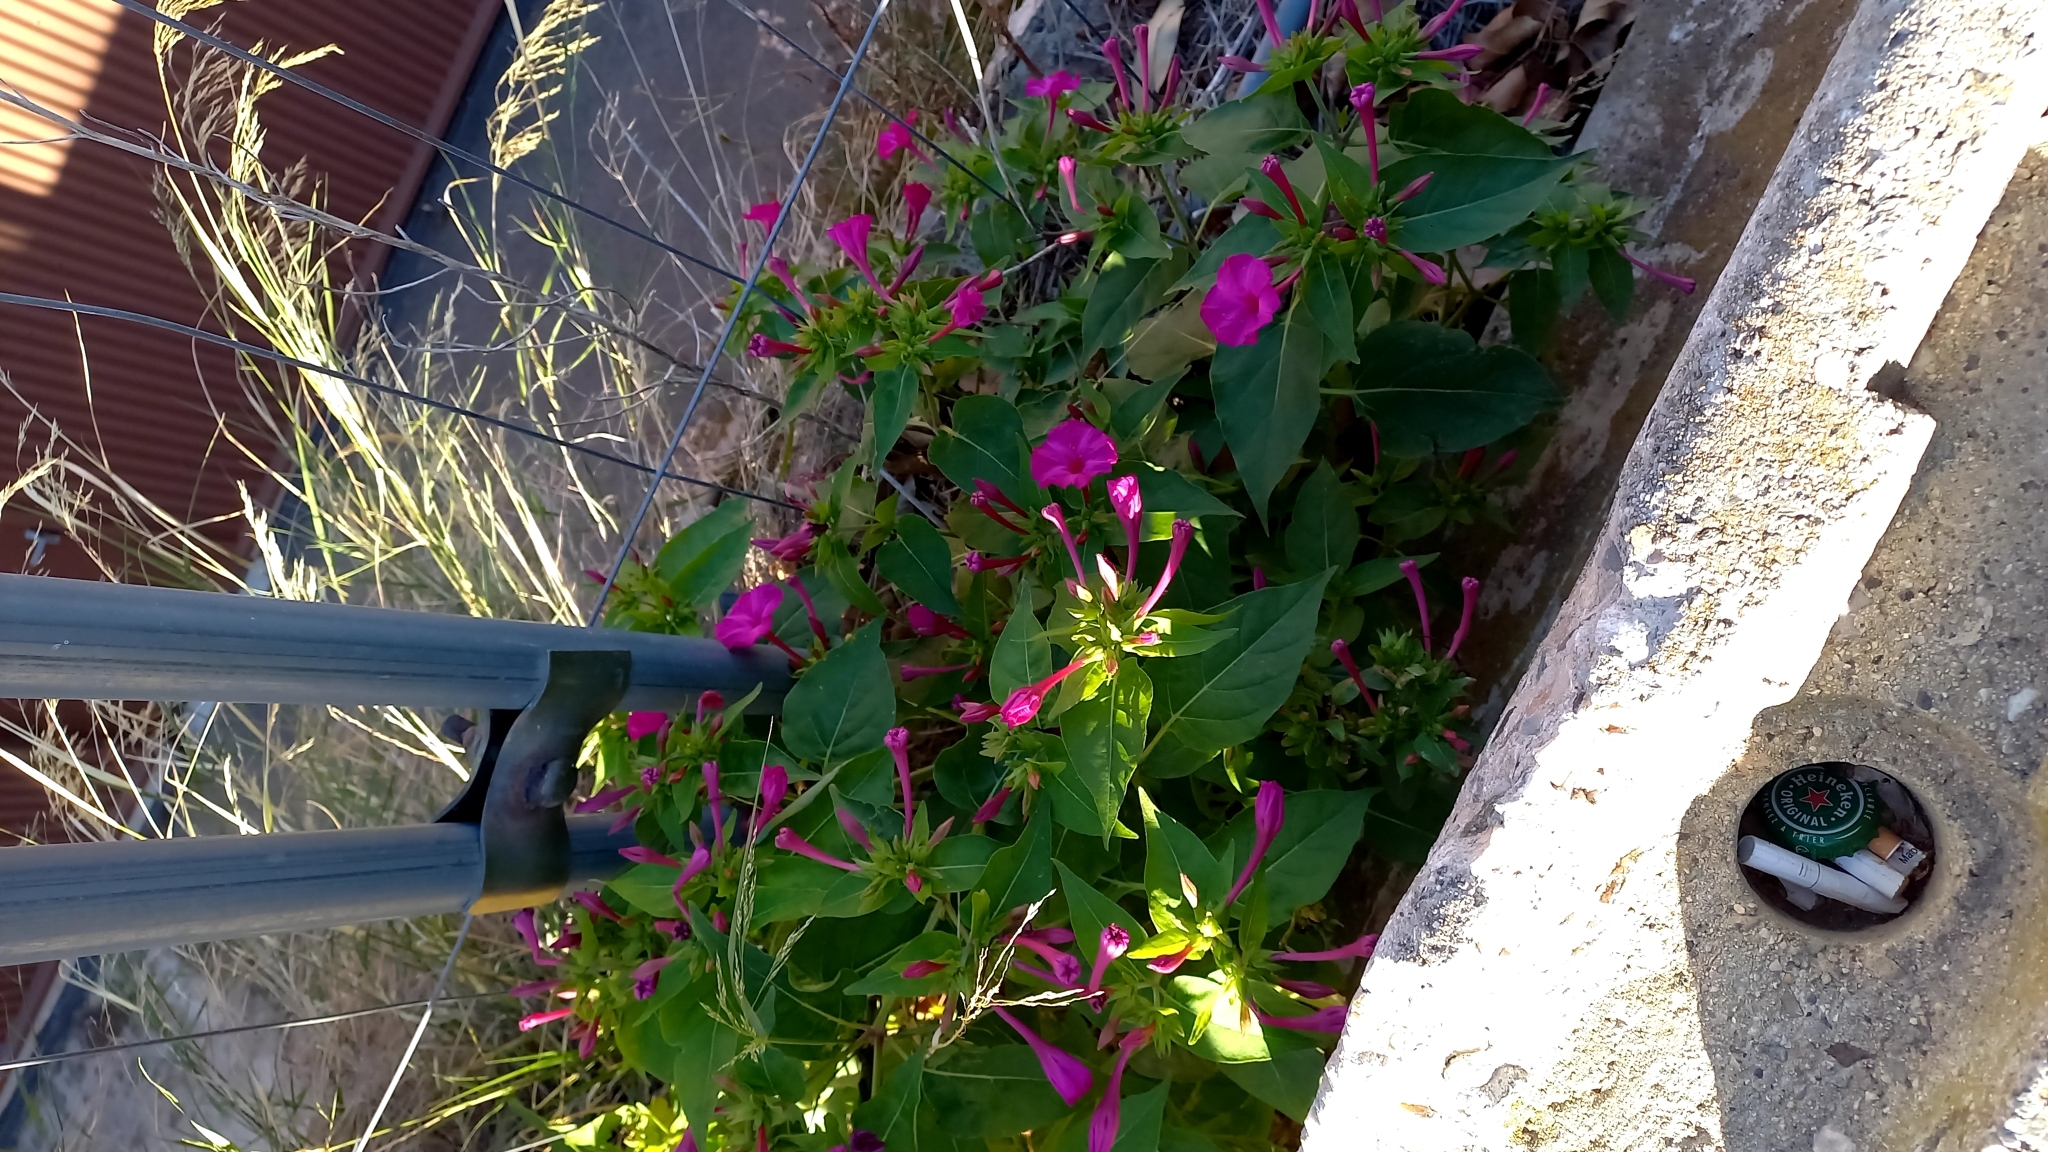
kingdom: Plantae
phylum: Tracheophyta
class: Magnoliopsida
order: Caryophyllales
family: Nyctaginaceae
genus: Mirabilis
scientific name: Mirabilis jalapa
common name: Marvel-of-peru
